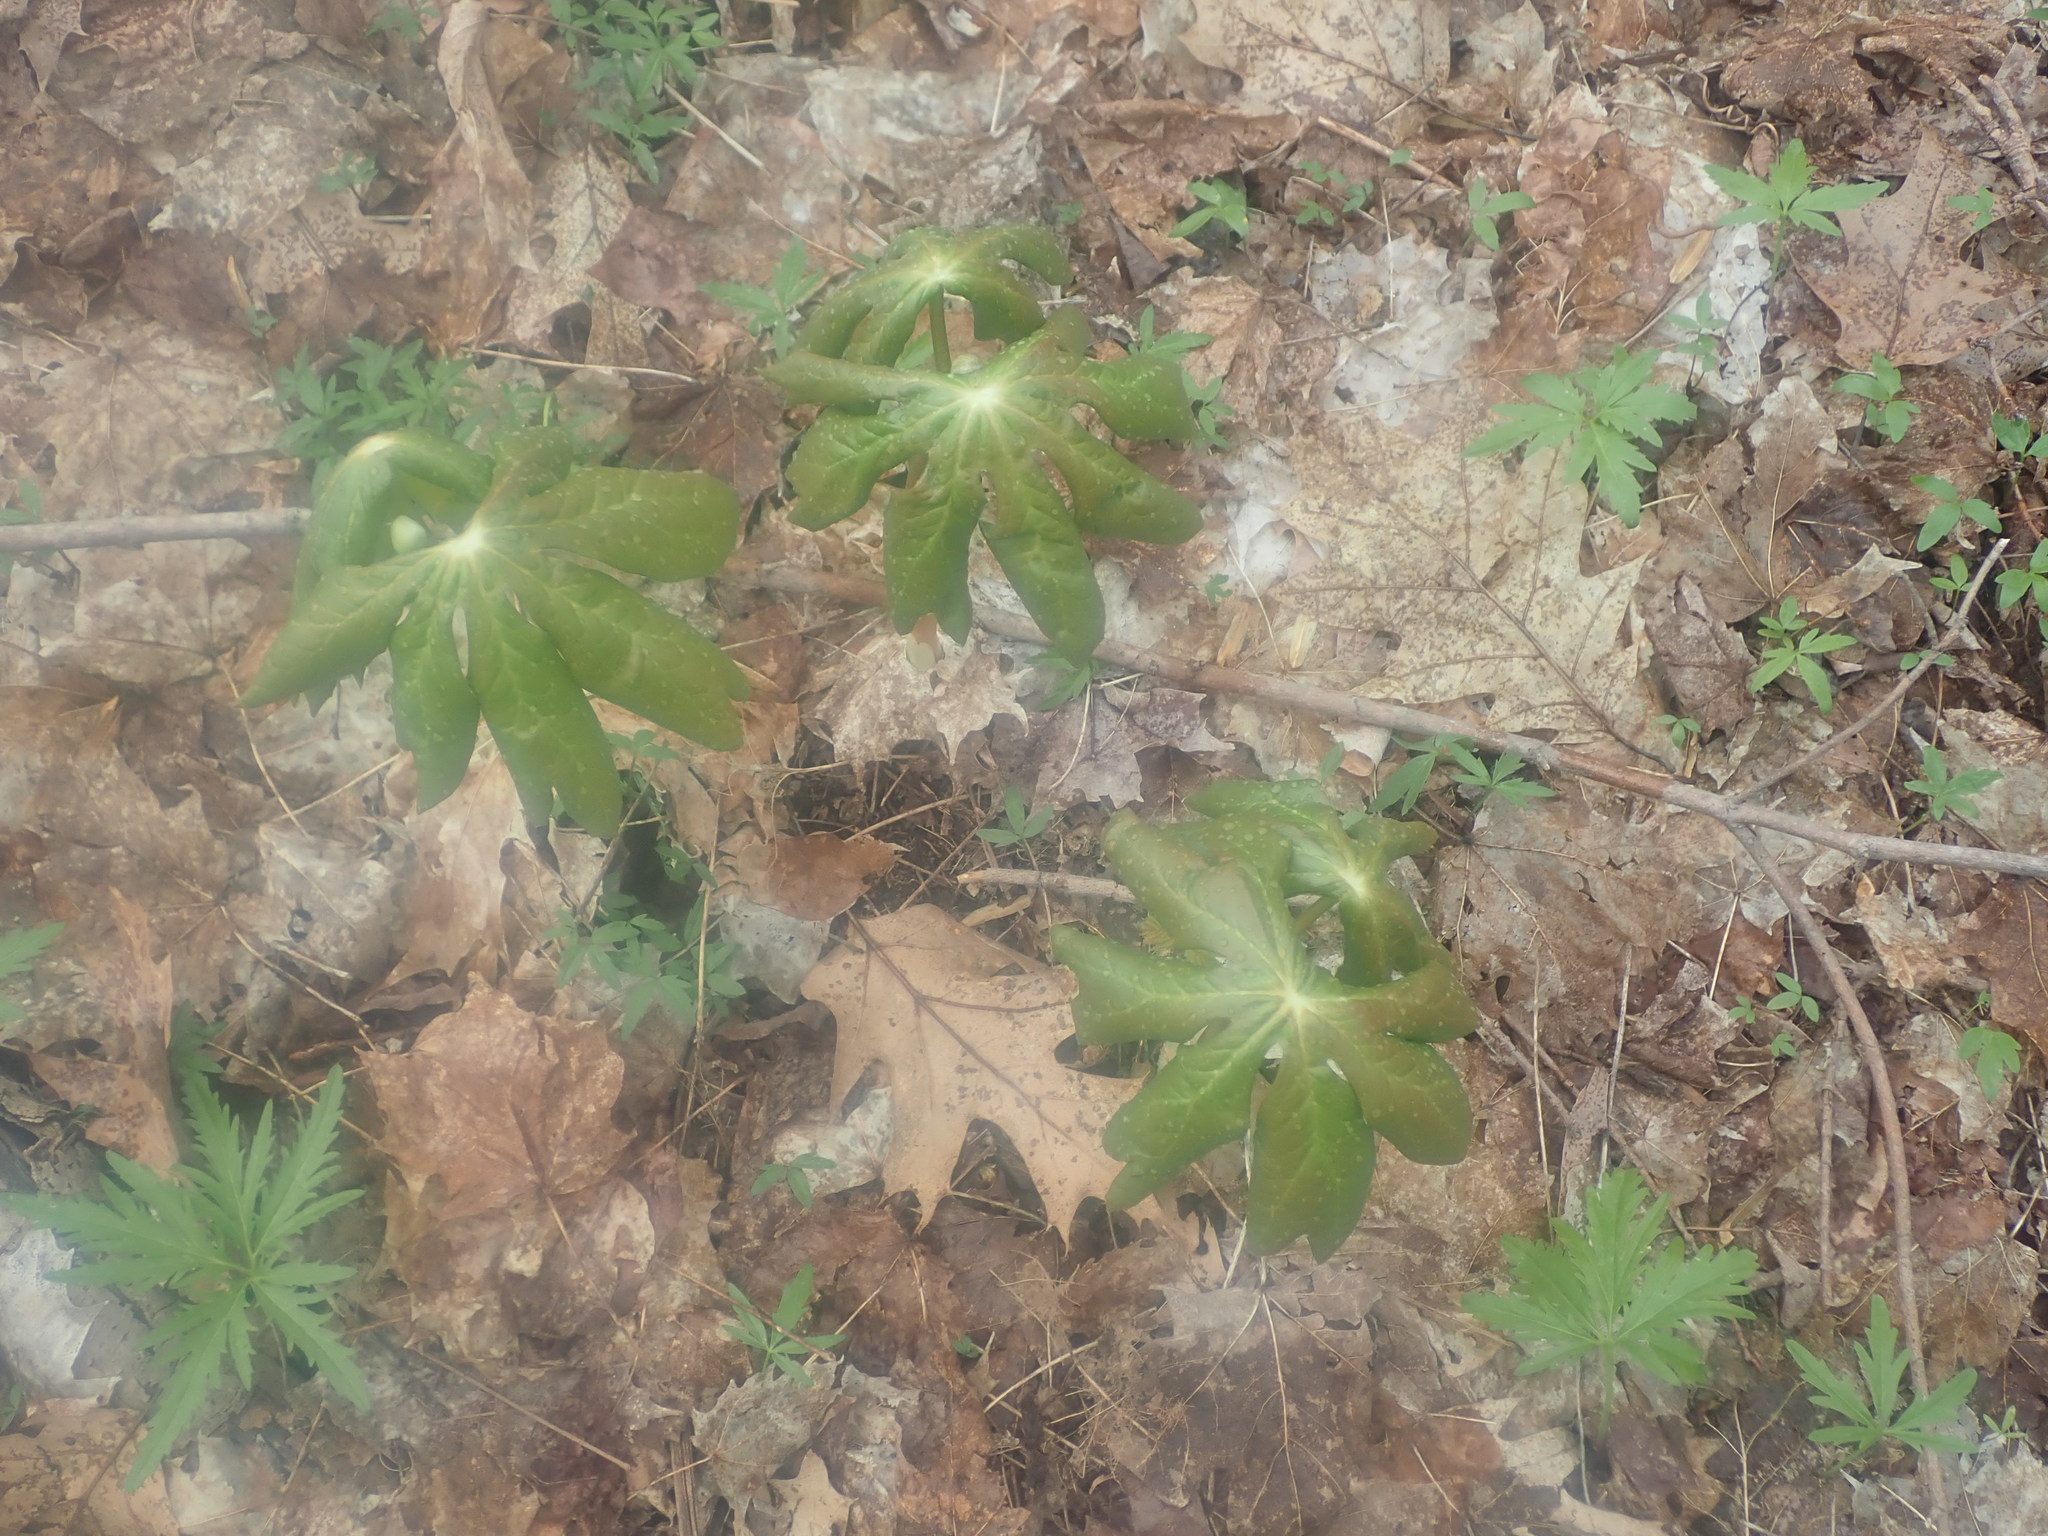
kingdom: Plantae
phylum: Tracheophyta
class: Magnoliopsida
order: Ranunculales
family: Berberidaceae
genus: Podophyllum
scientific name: Podophyllum peltatum
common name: Wild mandrake
